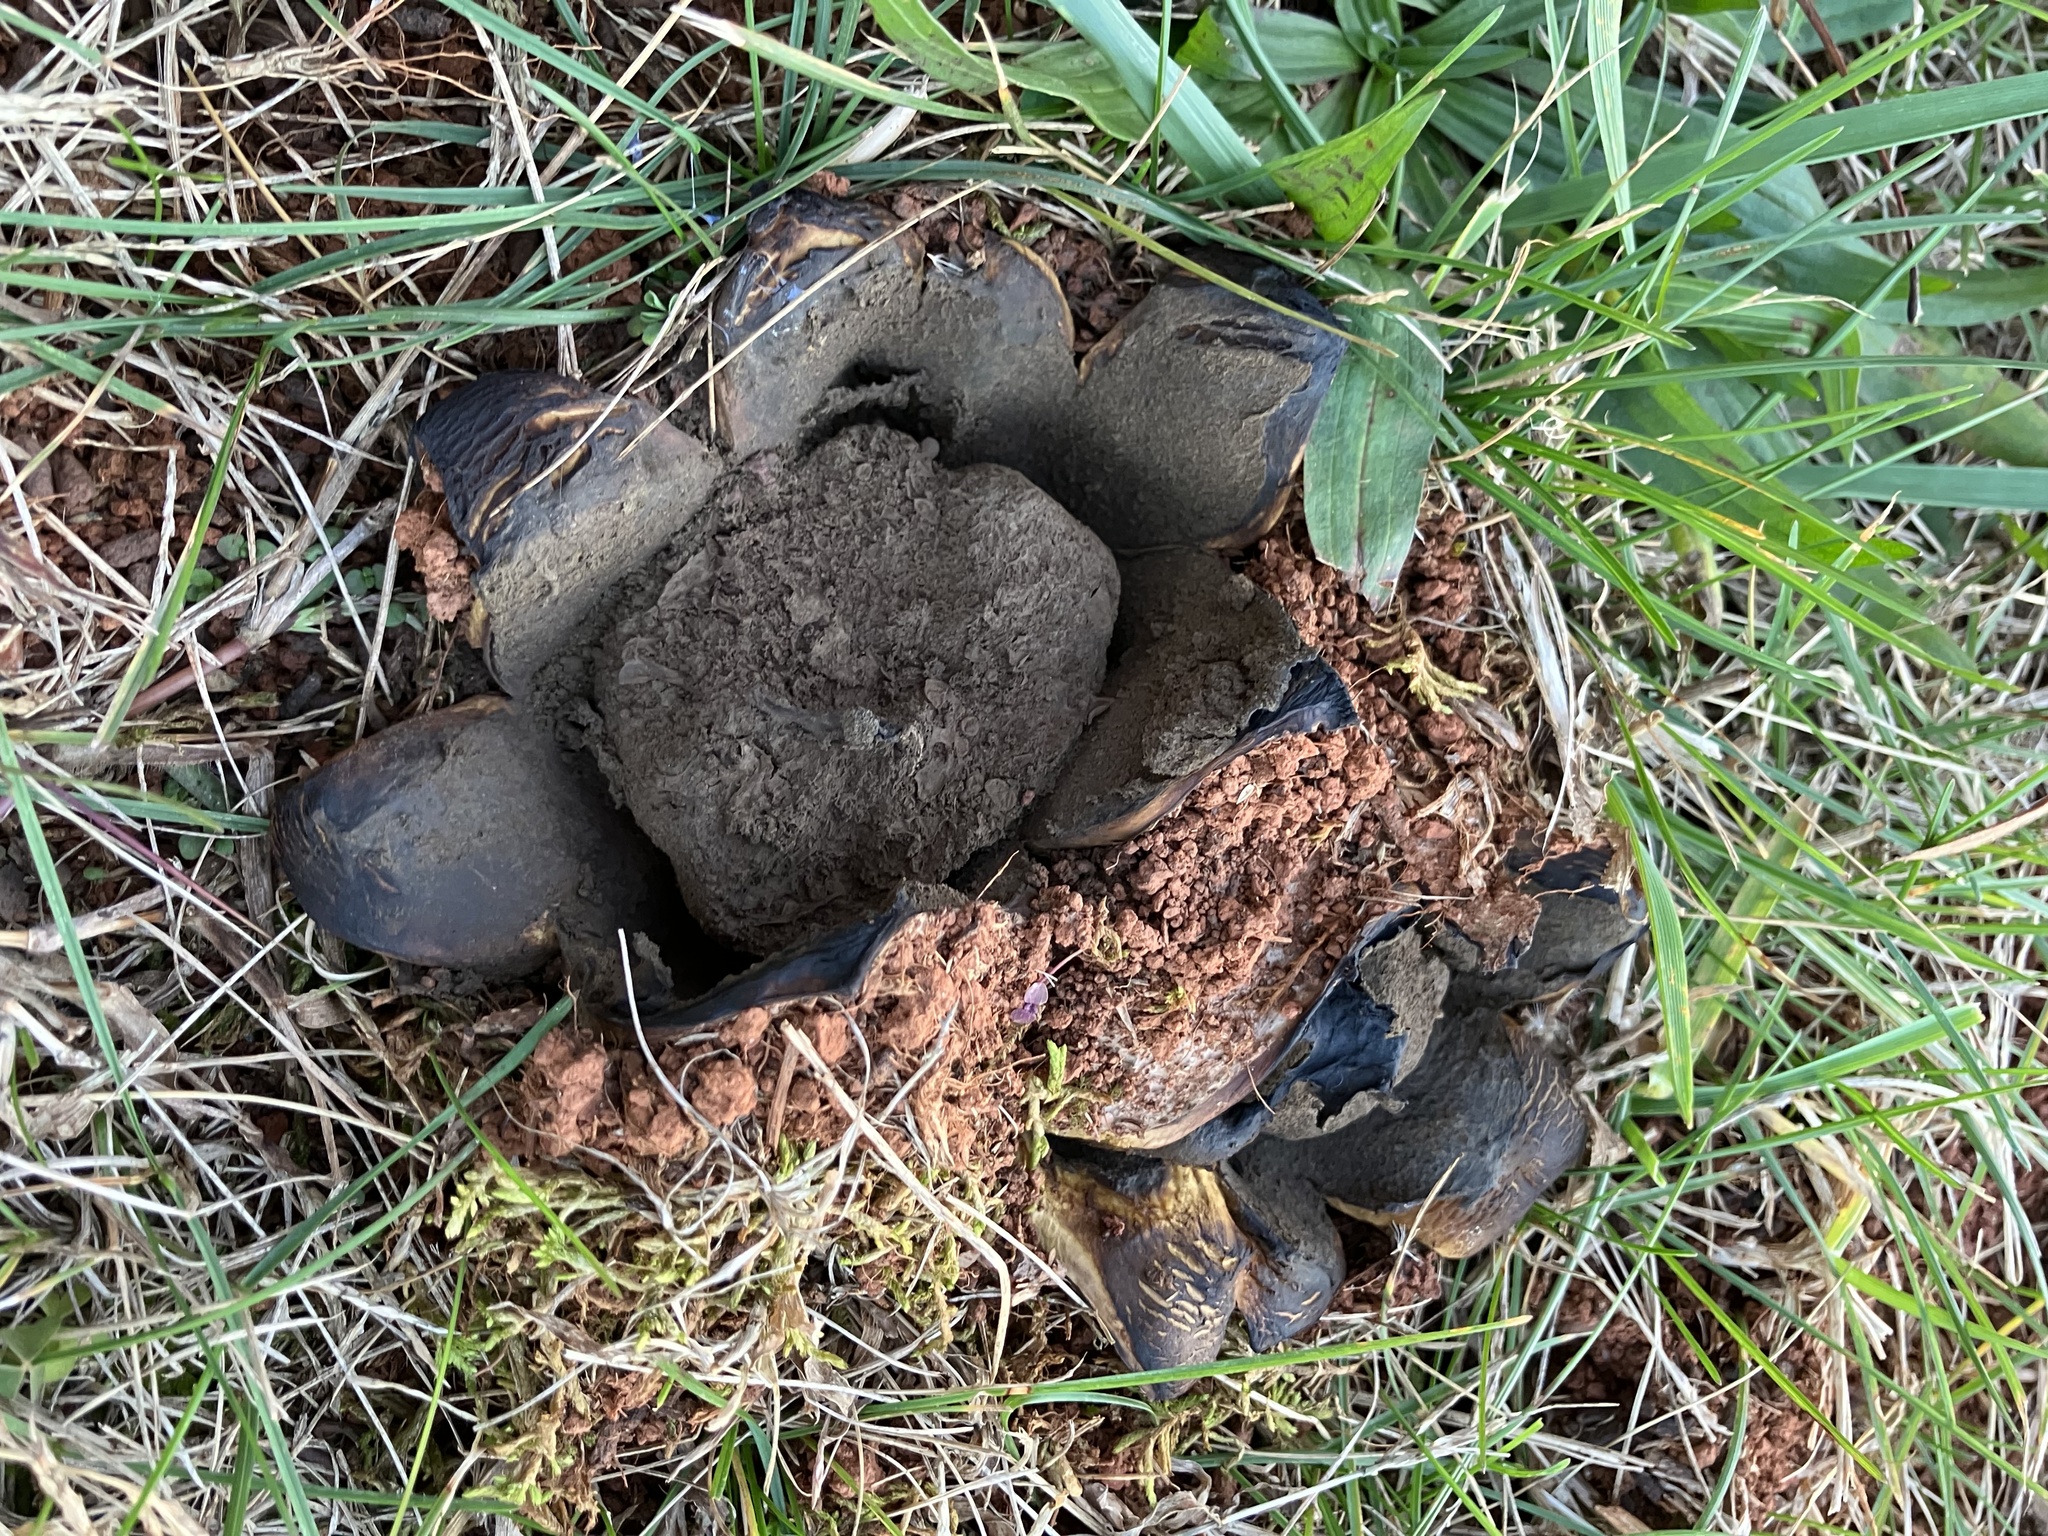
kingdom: Fungi
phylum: Basidiomycota
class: Agaricomycetes
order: Boletales
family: Sclerodermataceae
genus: Scleroderma
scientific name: Scleroderma polyrhizum
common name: Many-rooted earthball
